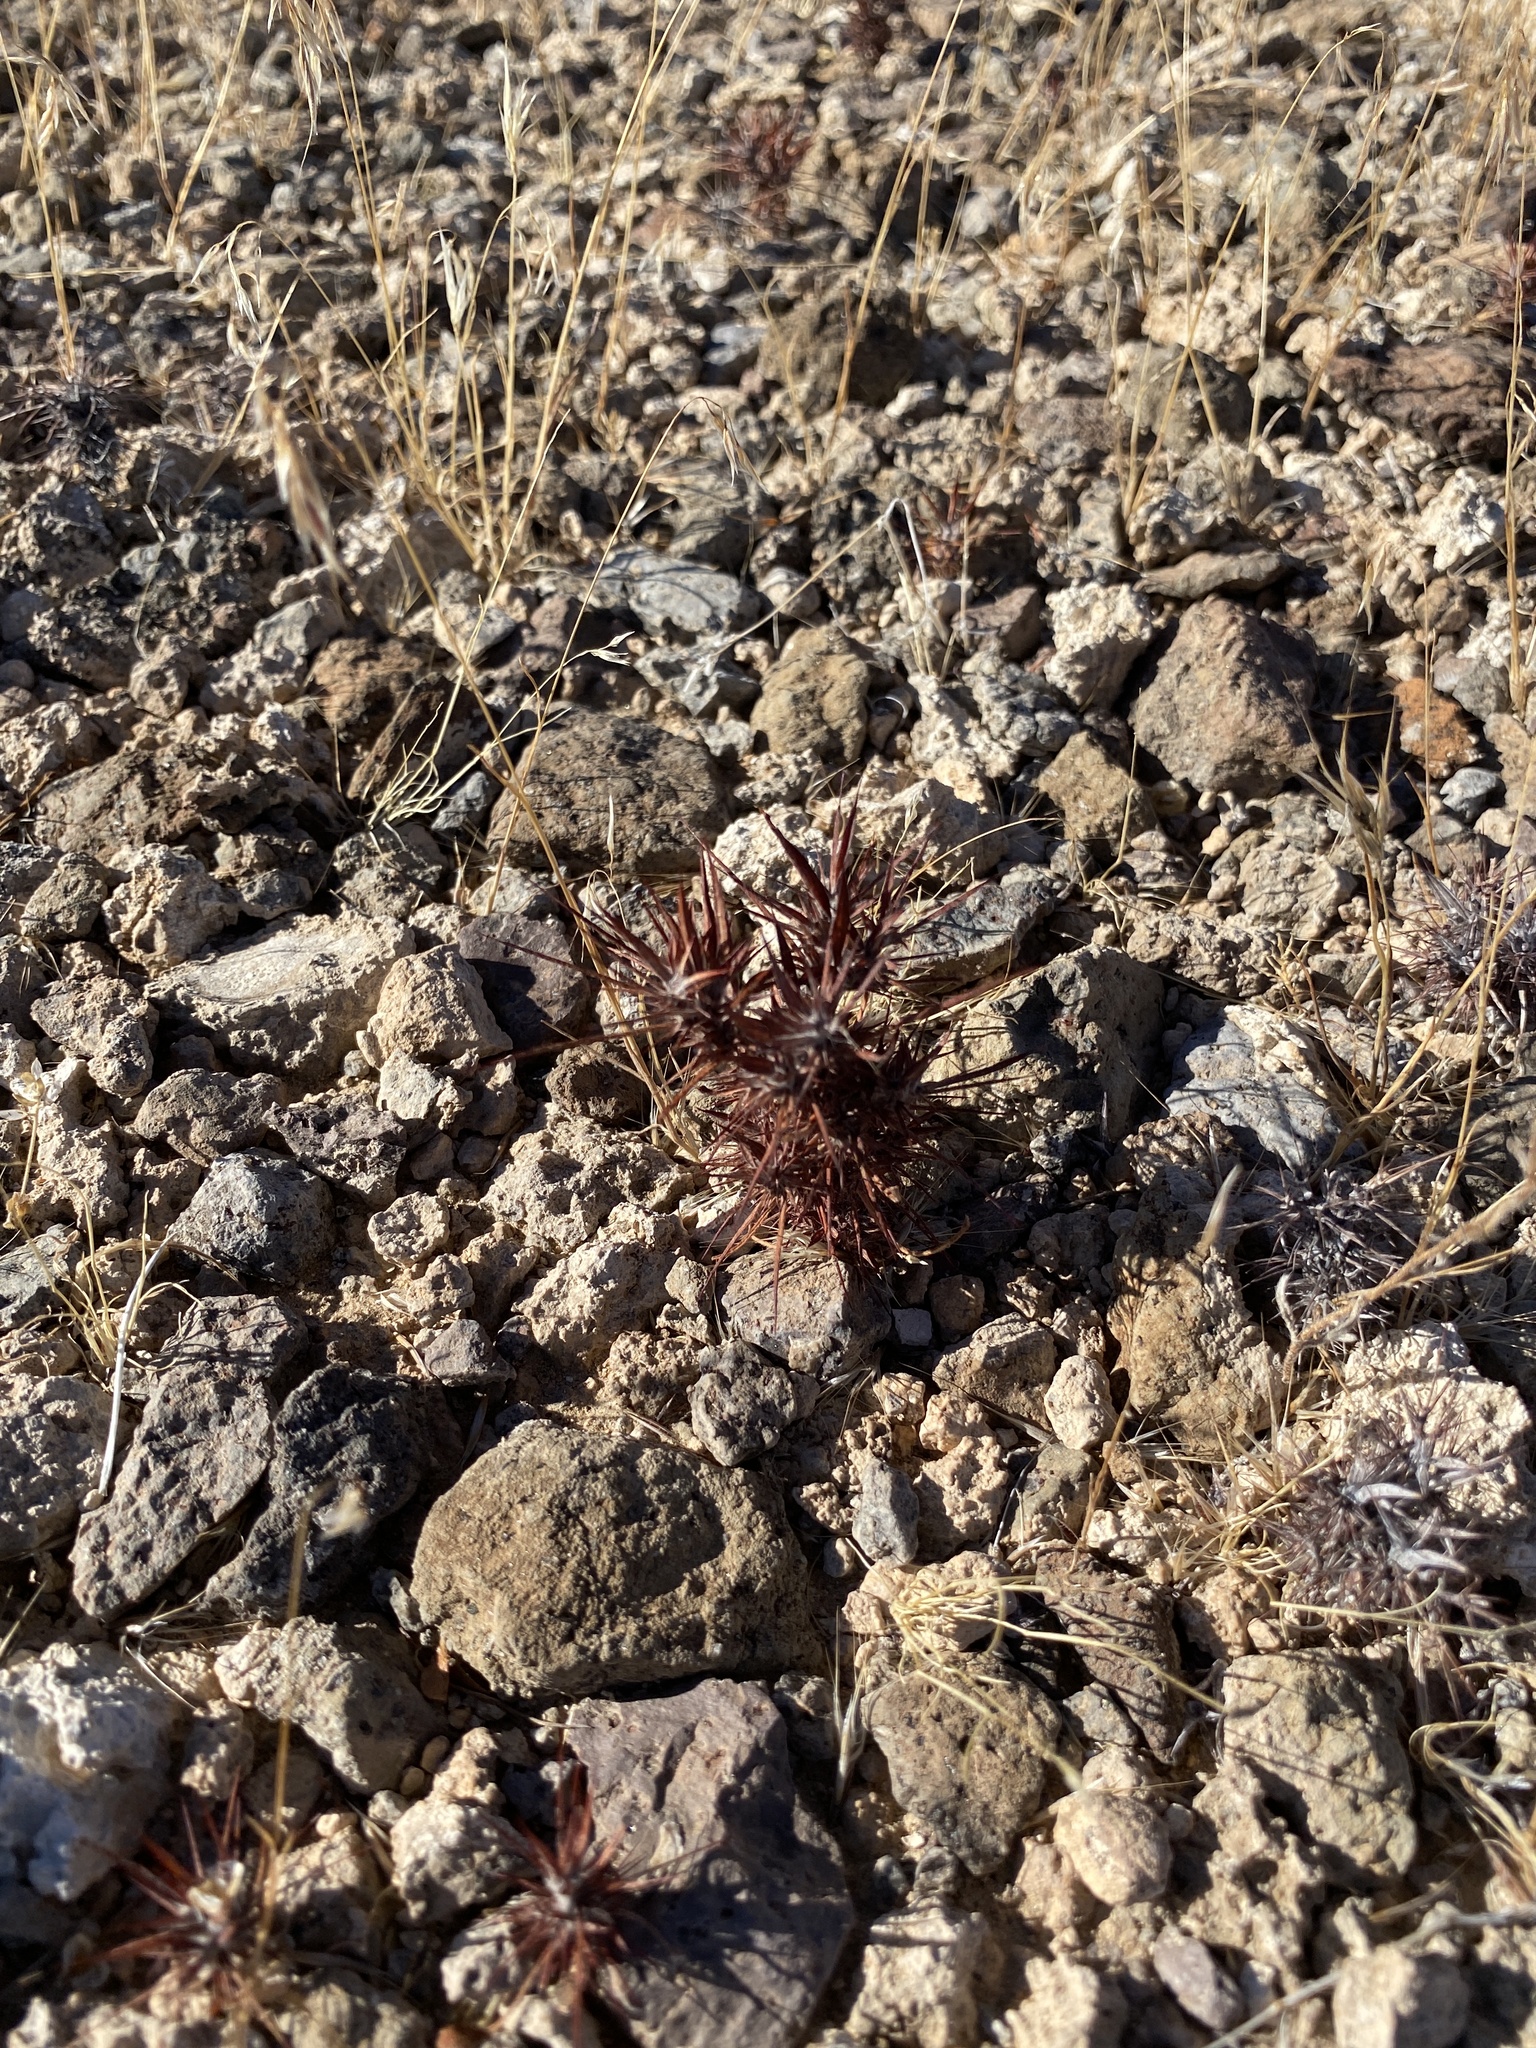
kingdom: Plantae
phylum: Tracheophyta
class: Magnoliopsida
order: Caryophyllales
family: Polygonaceae
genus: Chorizanthe
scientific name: Chorizanthe rigida
